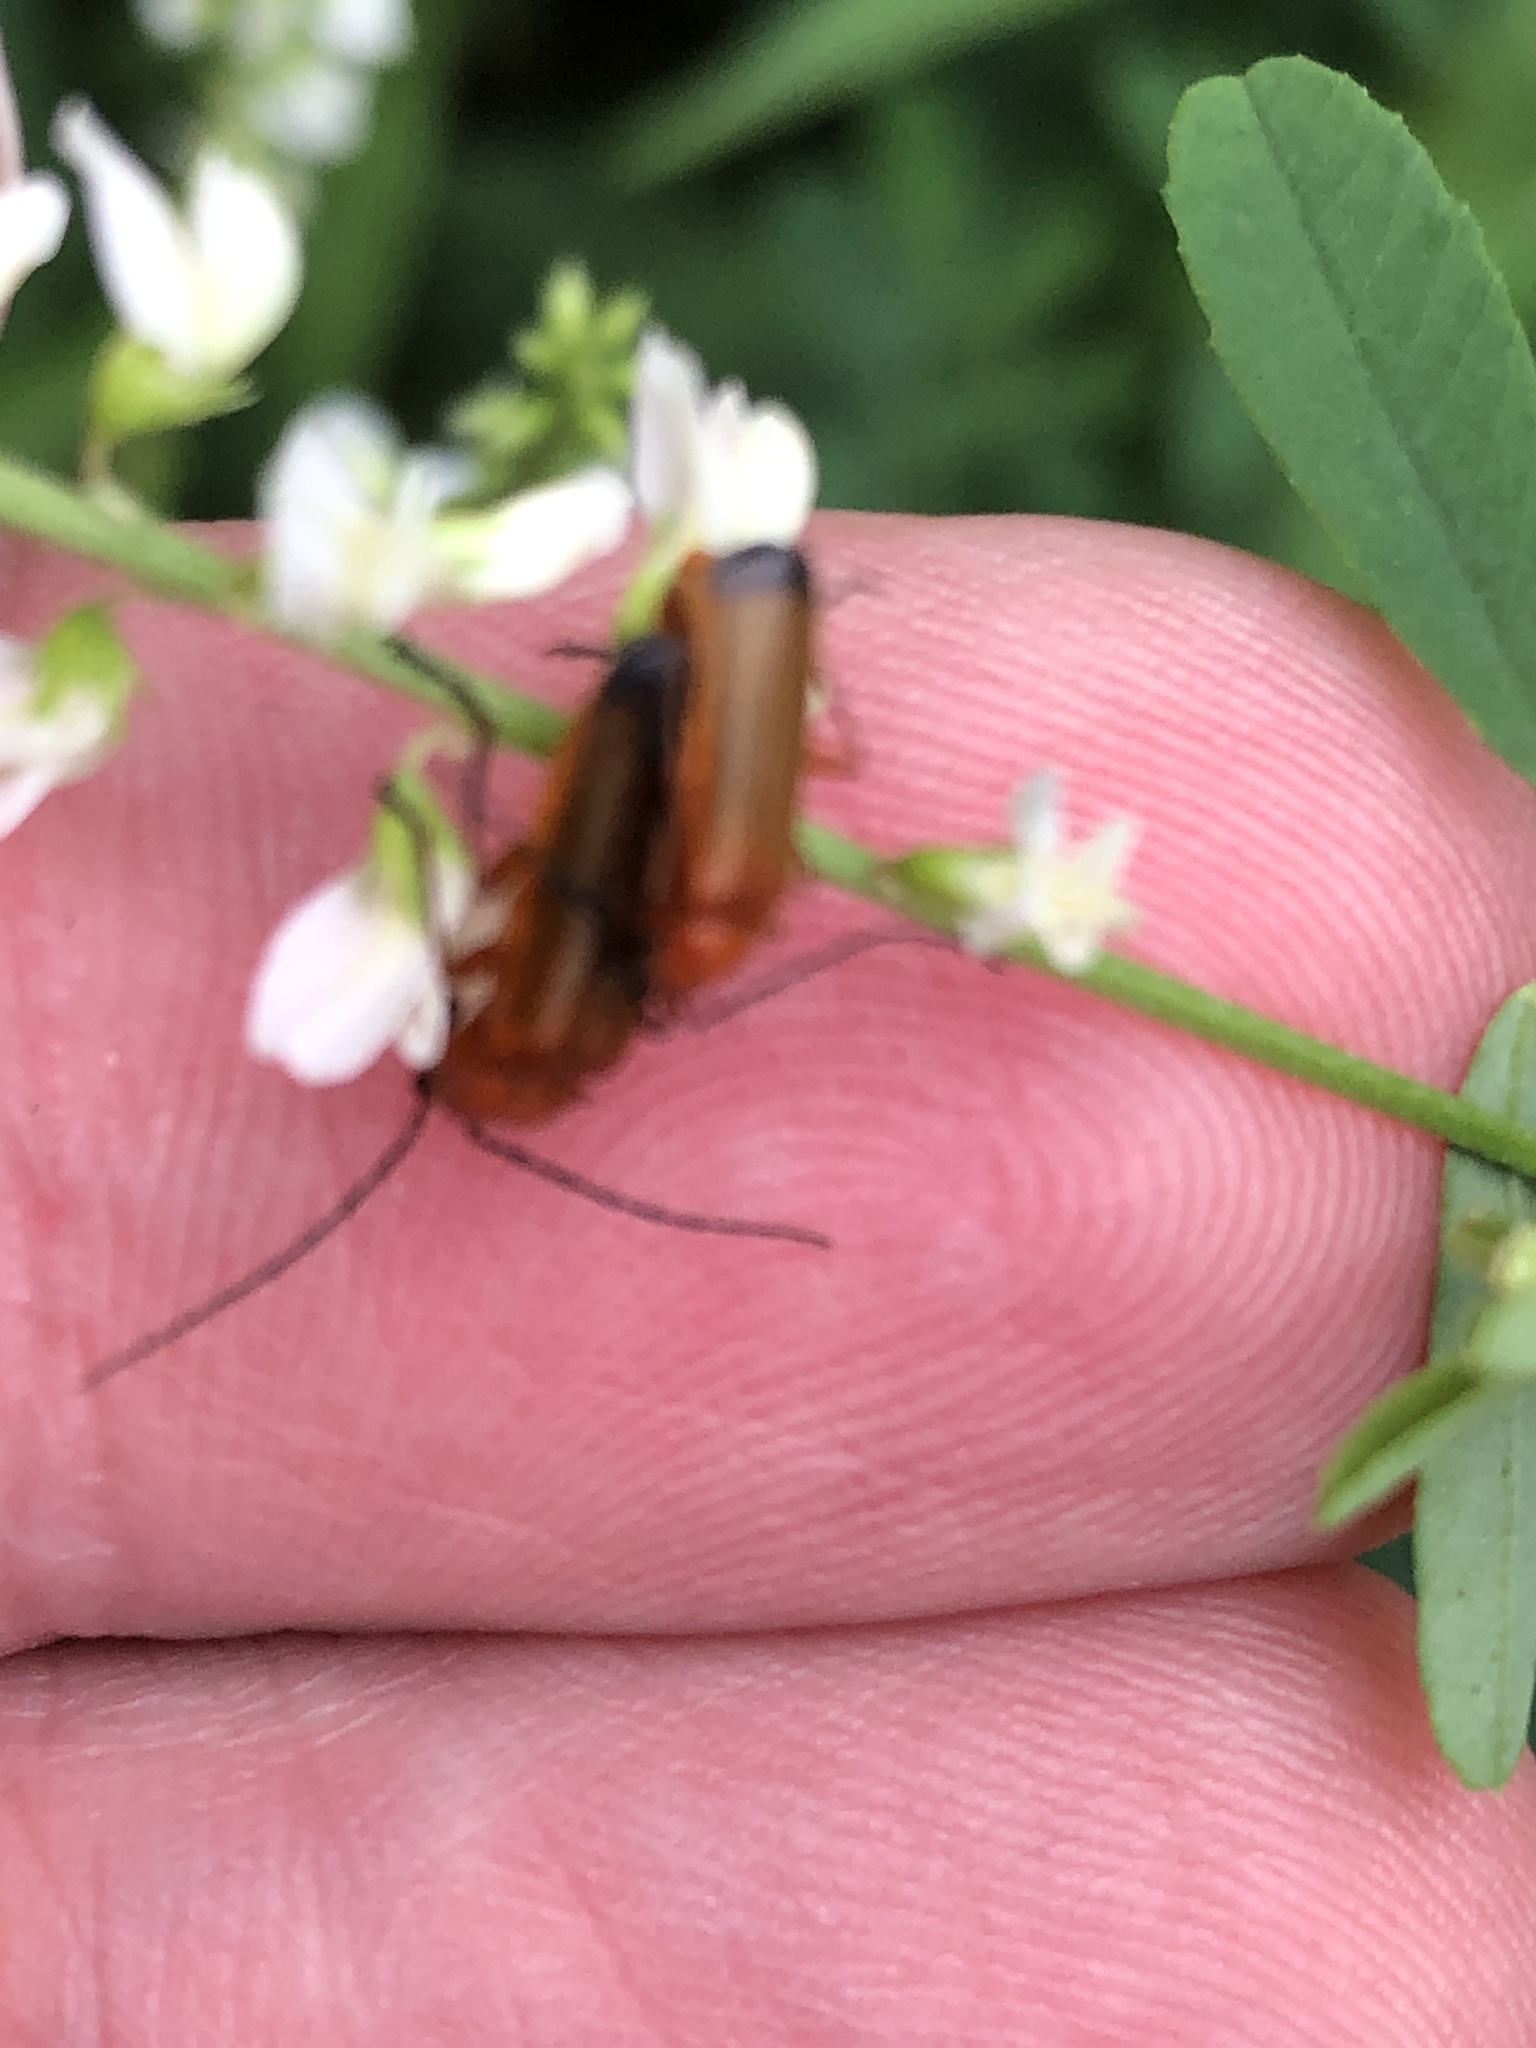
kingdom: Animalia
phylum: Arthropoda
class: Insecta
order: Coleoptera
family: Cantharidae
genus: Rhagonycha
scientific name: Rhagonycha fulva
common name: Common red soldier beetle
